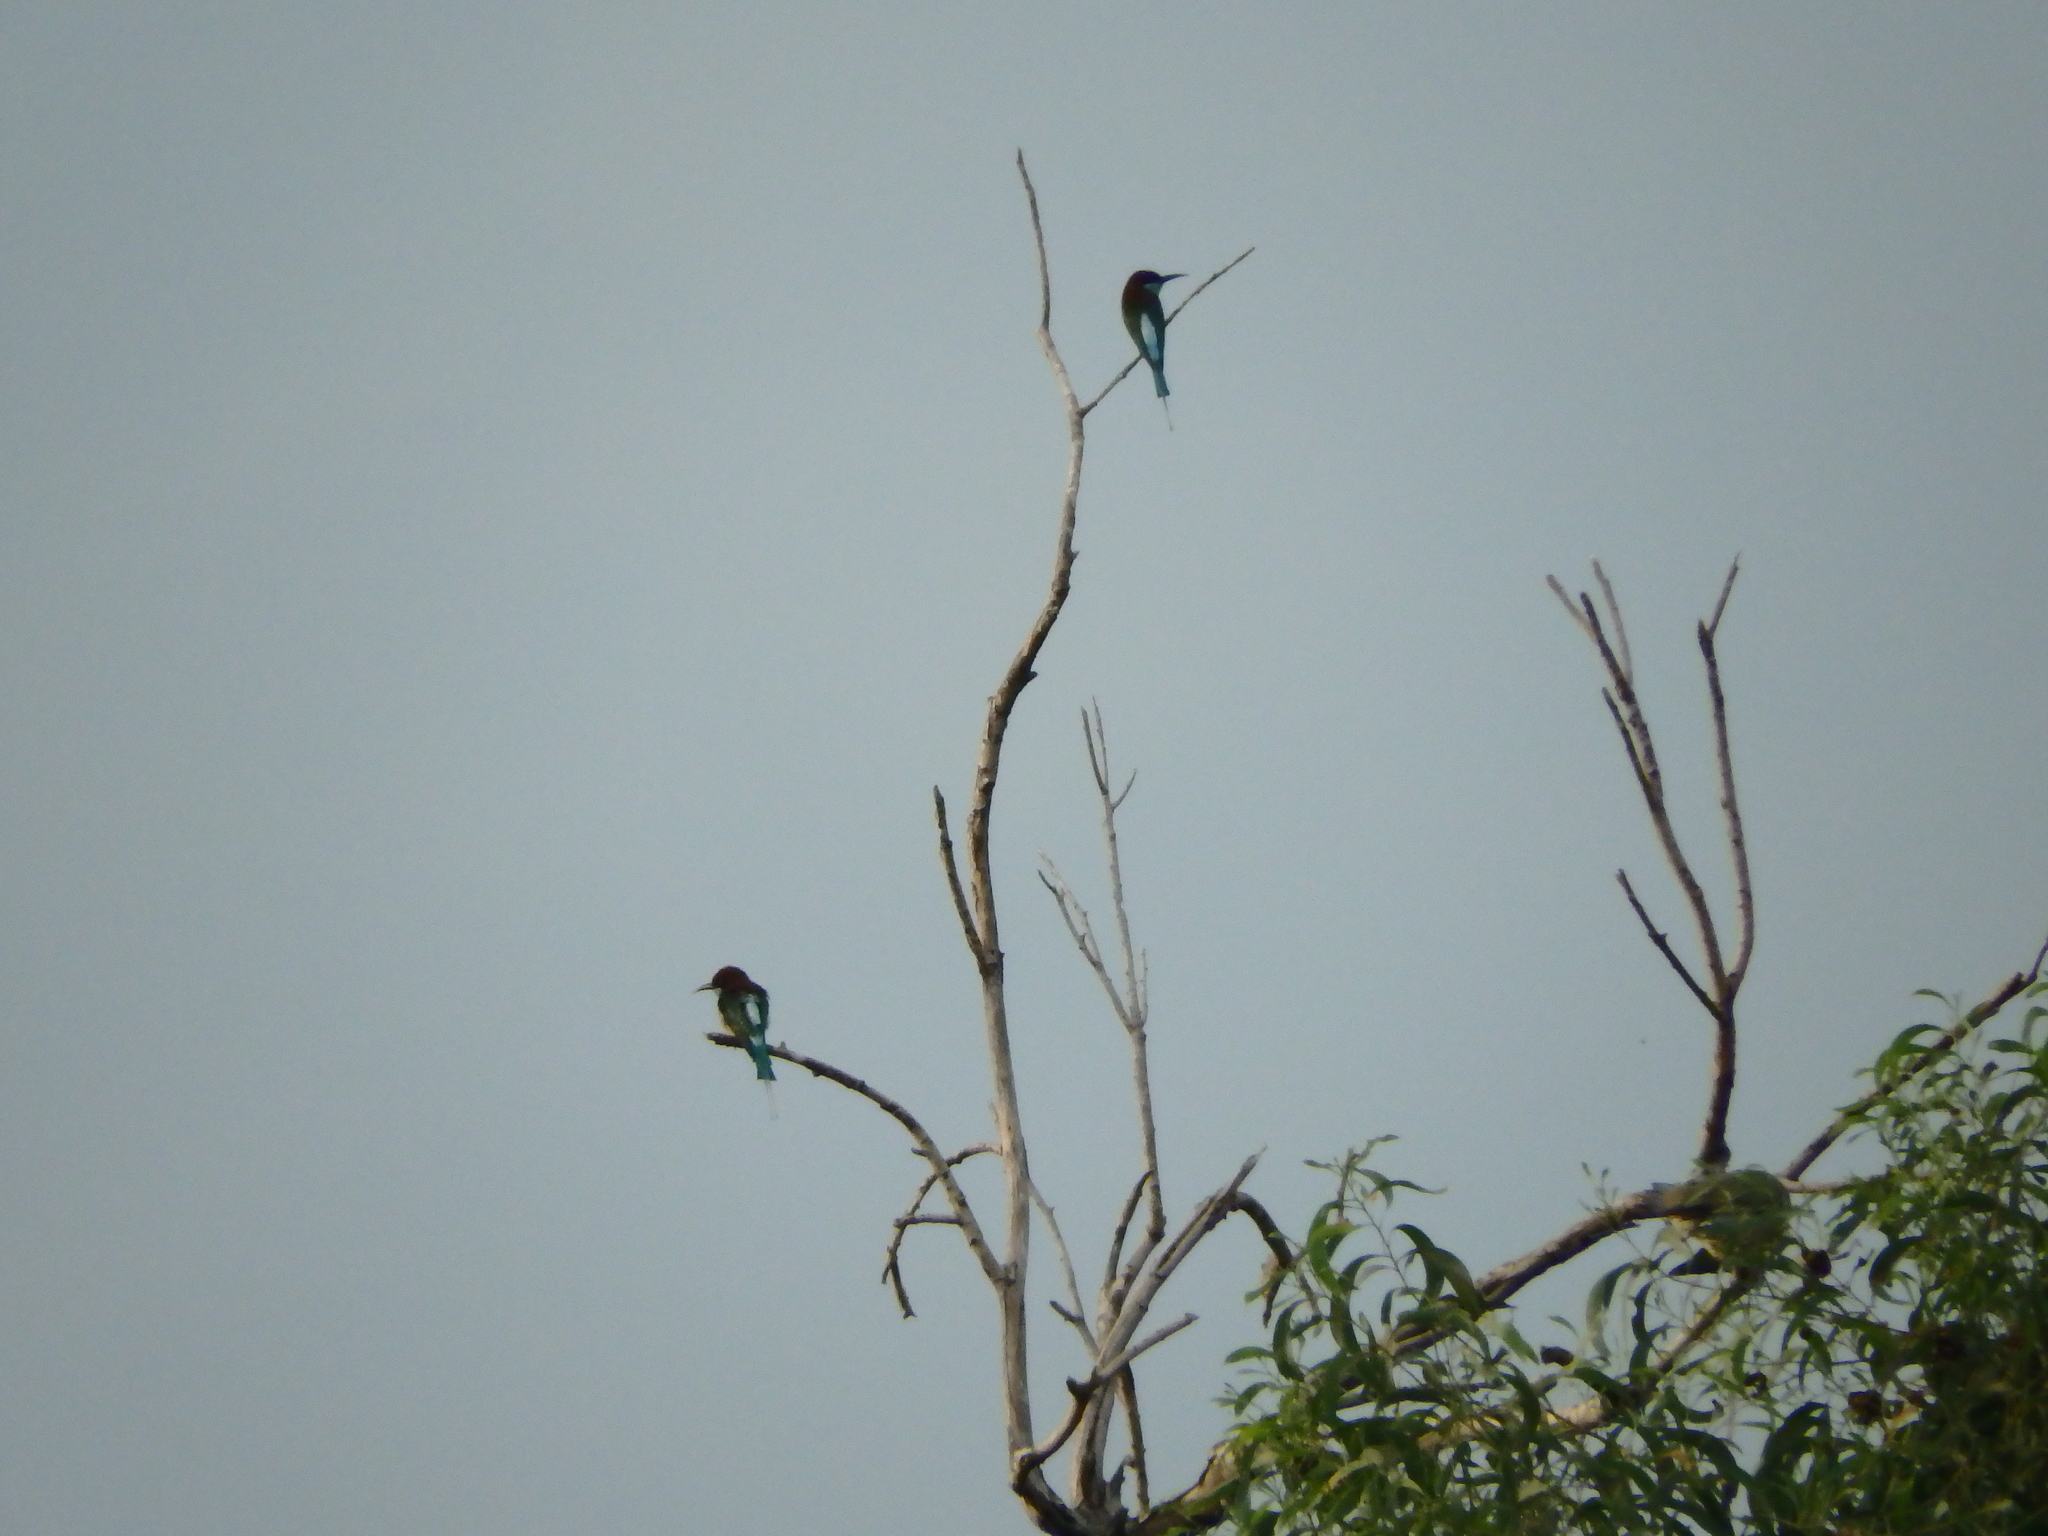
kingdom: Animalia
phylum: Chordata
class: Aves
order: Coraciiformes
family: Meropidae
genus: Merops
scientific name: Merops viridis
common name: Blue-throated bee-eater
